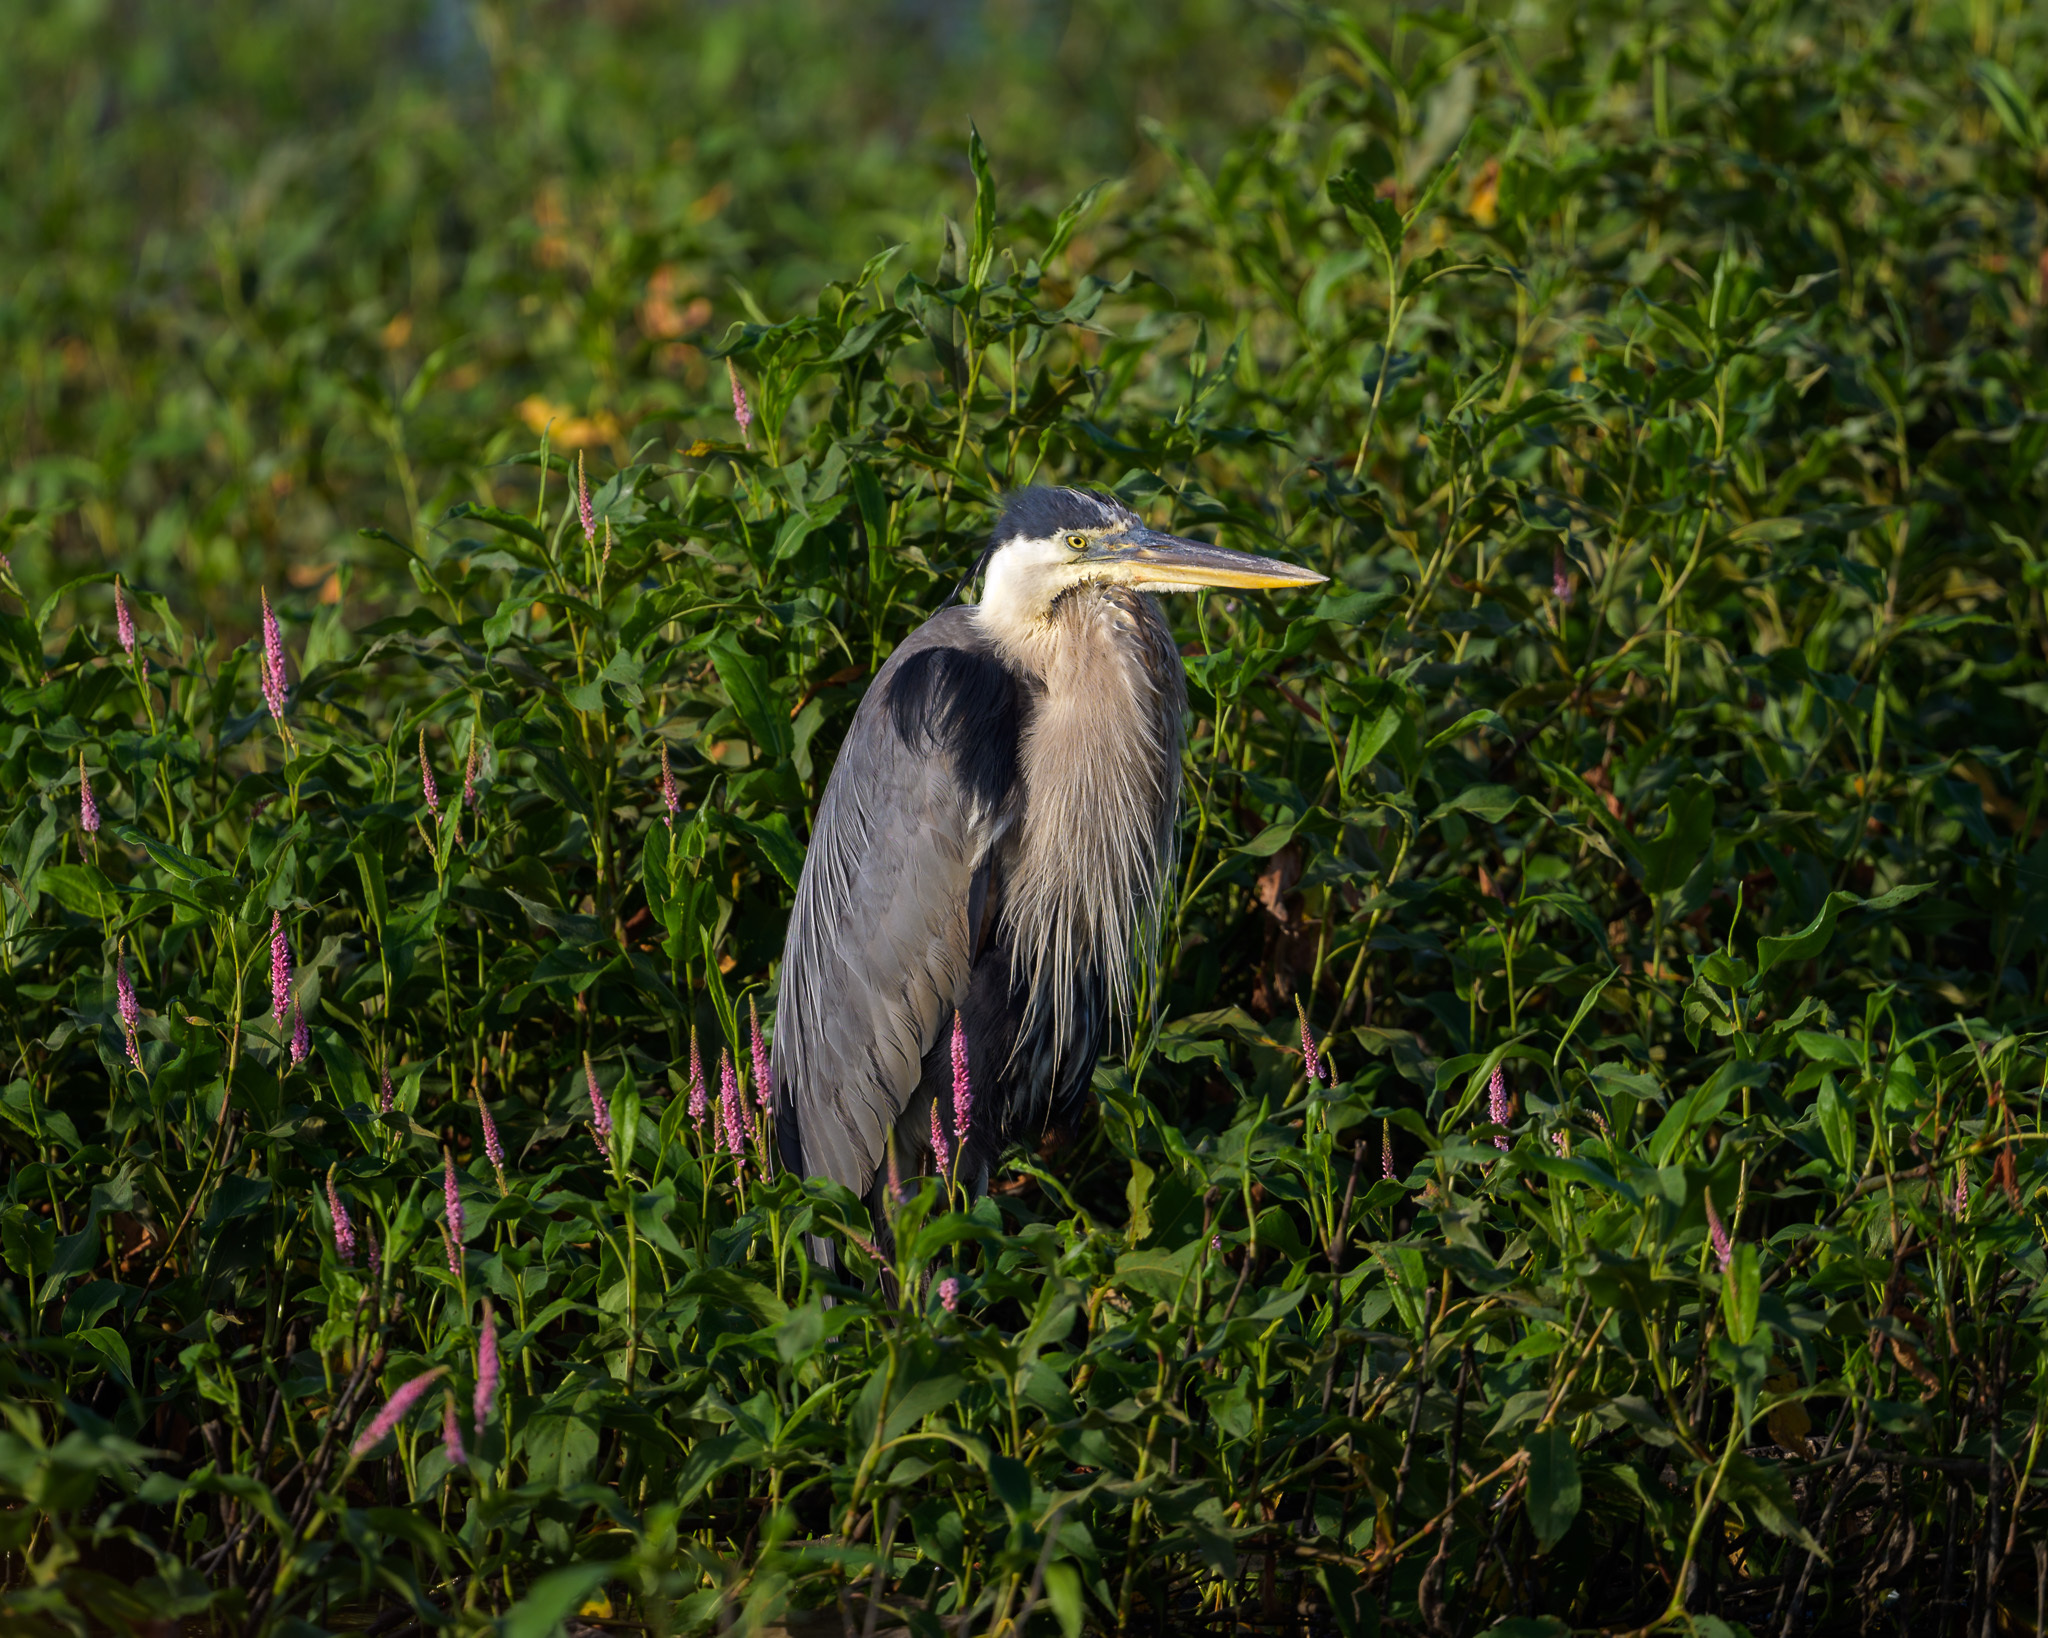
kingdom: Animalia
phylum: Chordata
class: Aves
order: Pelecaniformes
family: Ardeidae
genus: Ardea
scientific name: Ardea herodias
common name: Great blue heron
